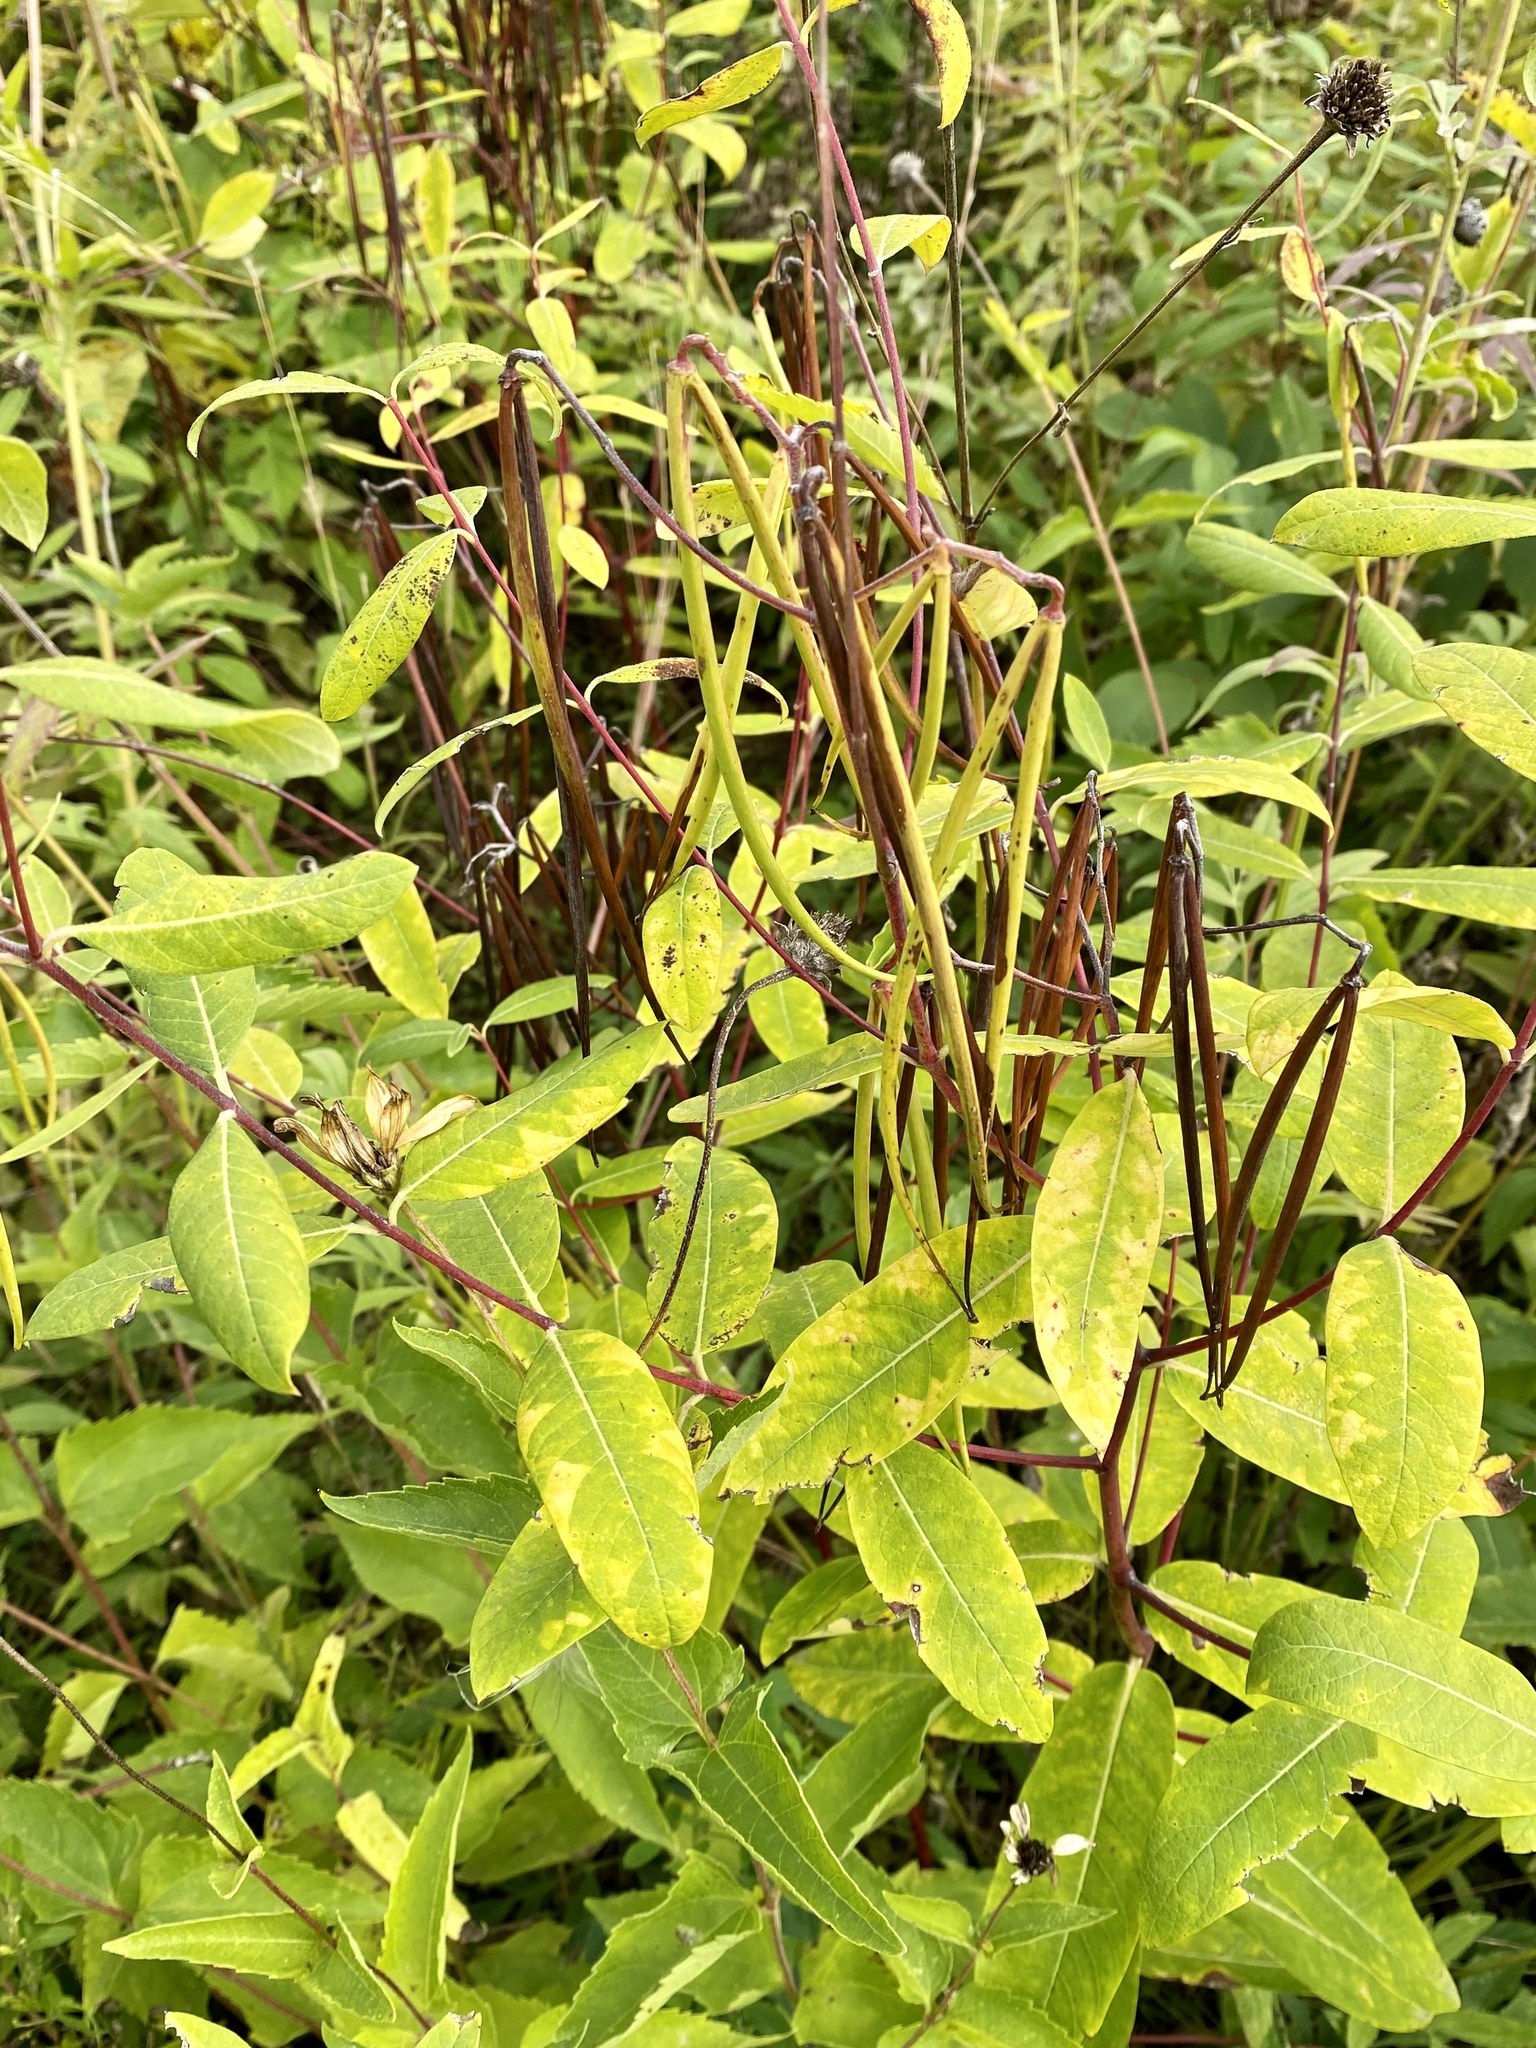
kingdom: Plantae
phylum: Tracheophyta
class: Magnoliopsida
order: Gentianales
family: Apocynaceae
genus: Apocynum
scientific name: Apocynum cannabinum
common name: Hemp dogbane
